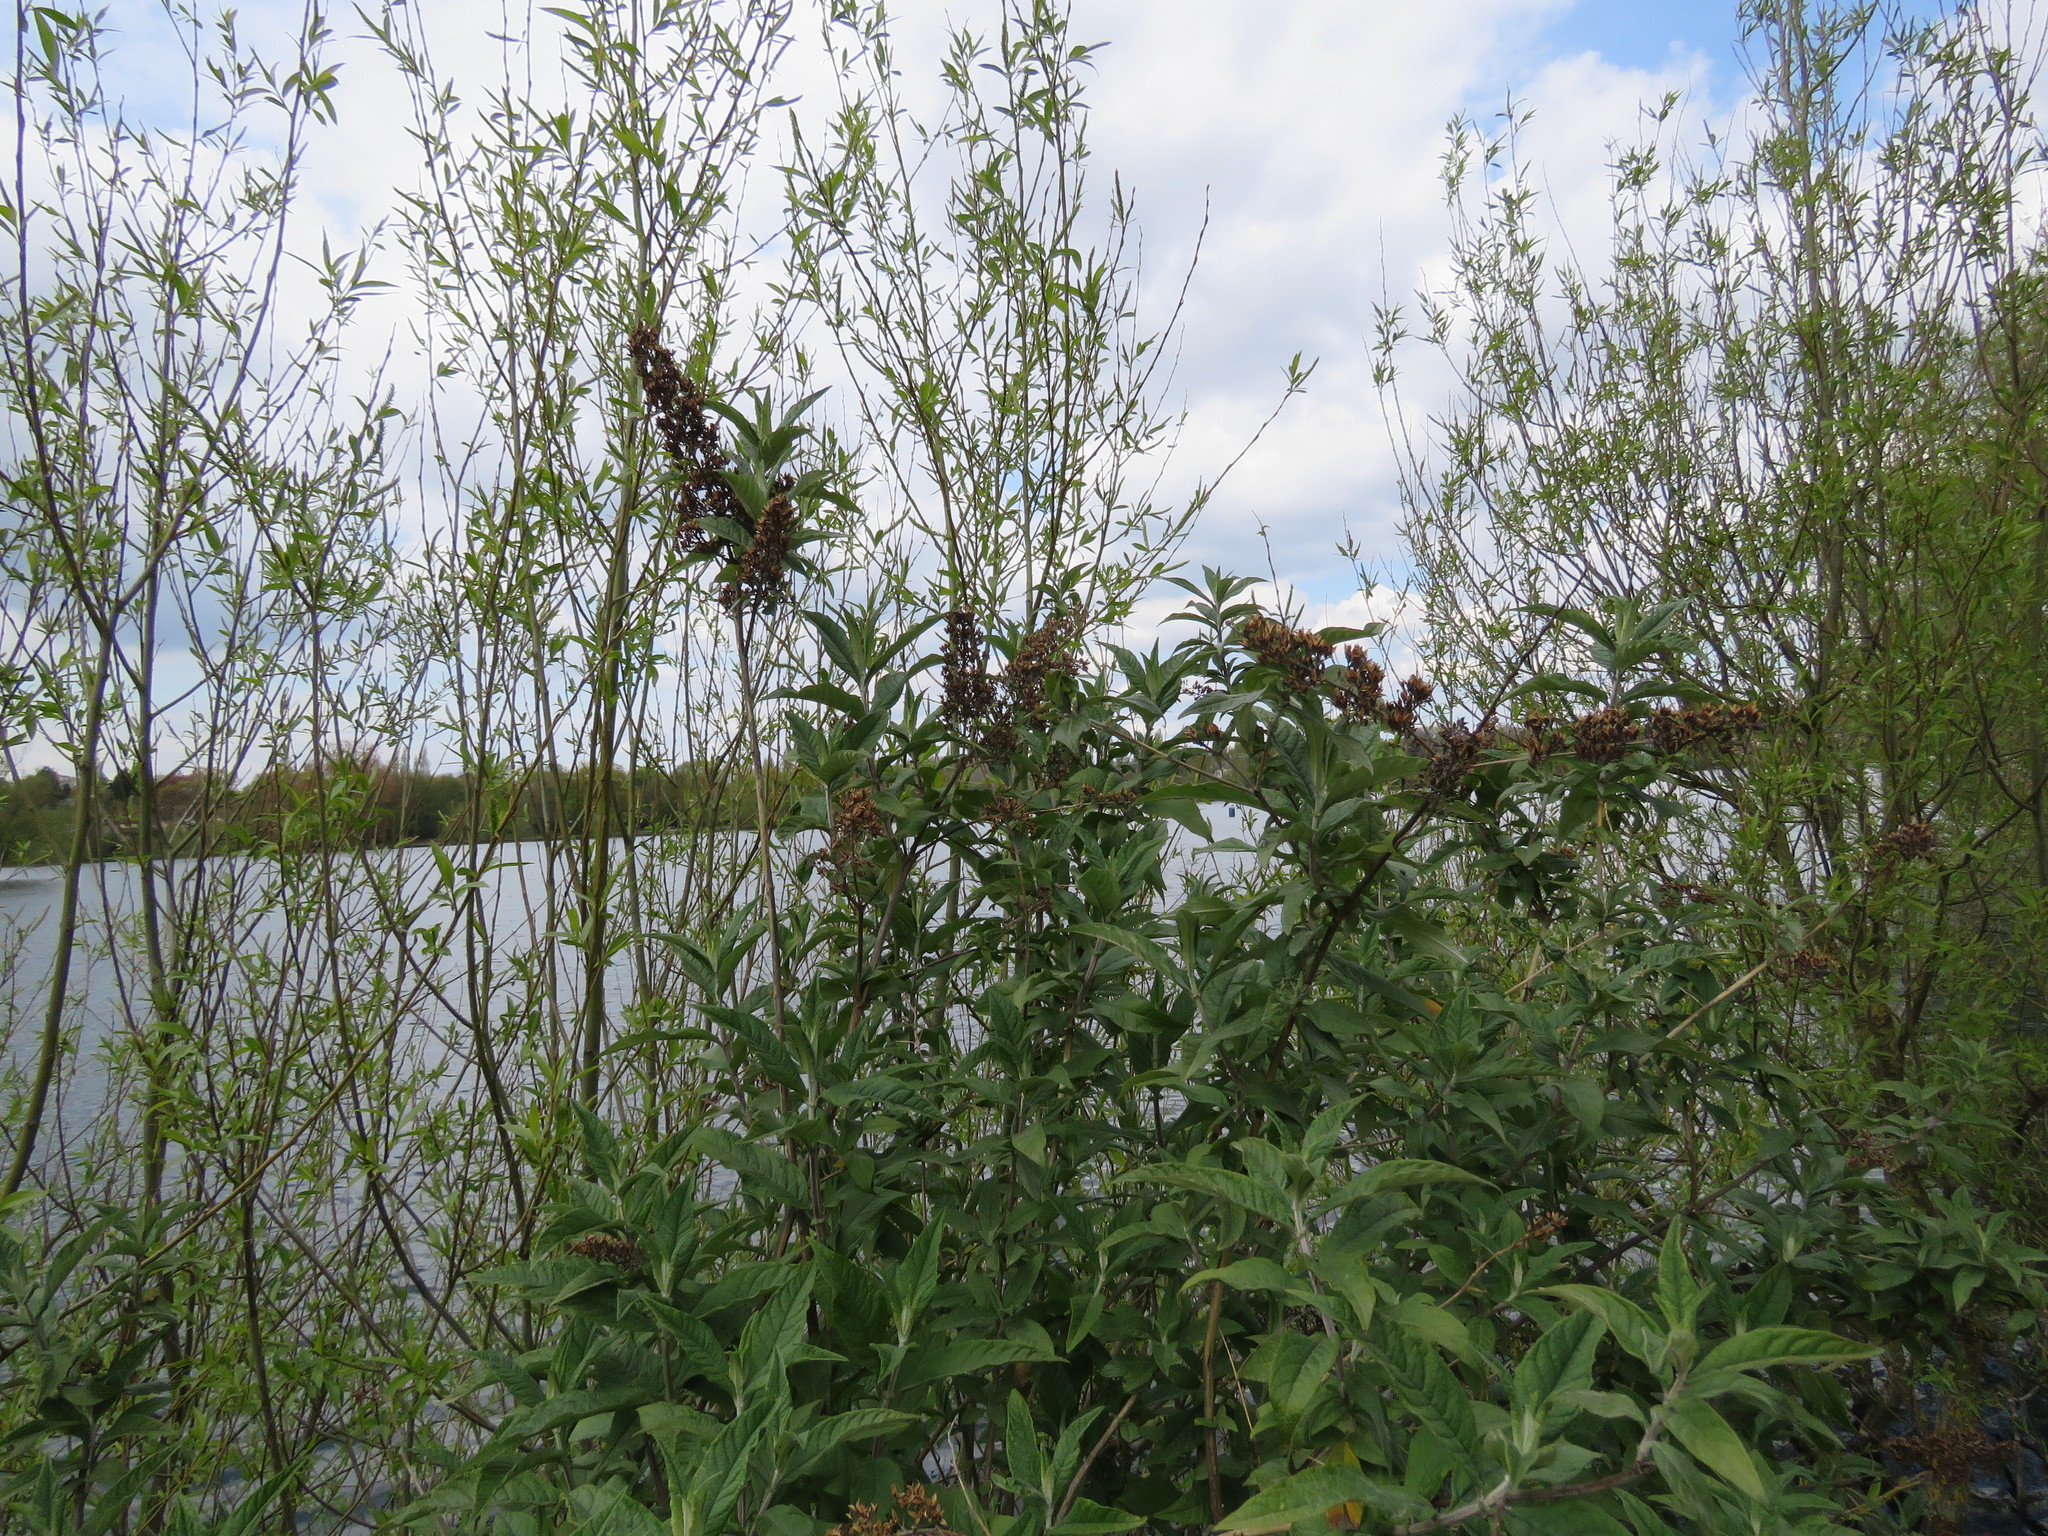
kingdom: Plantae
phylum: Tracheophyta
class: Magnoliopsida
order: Lamiales
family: Scrophulariaceae
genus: Buddleja
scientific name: Buddleja davidii
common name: Butterfly-bush
